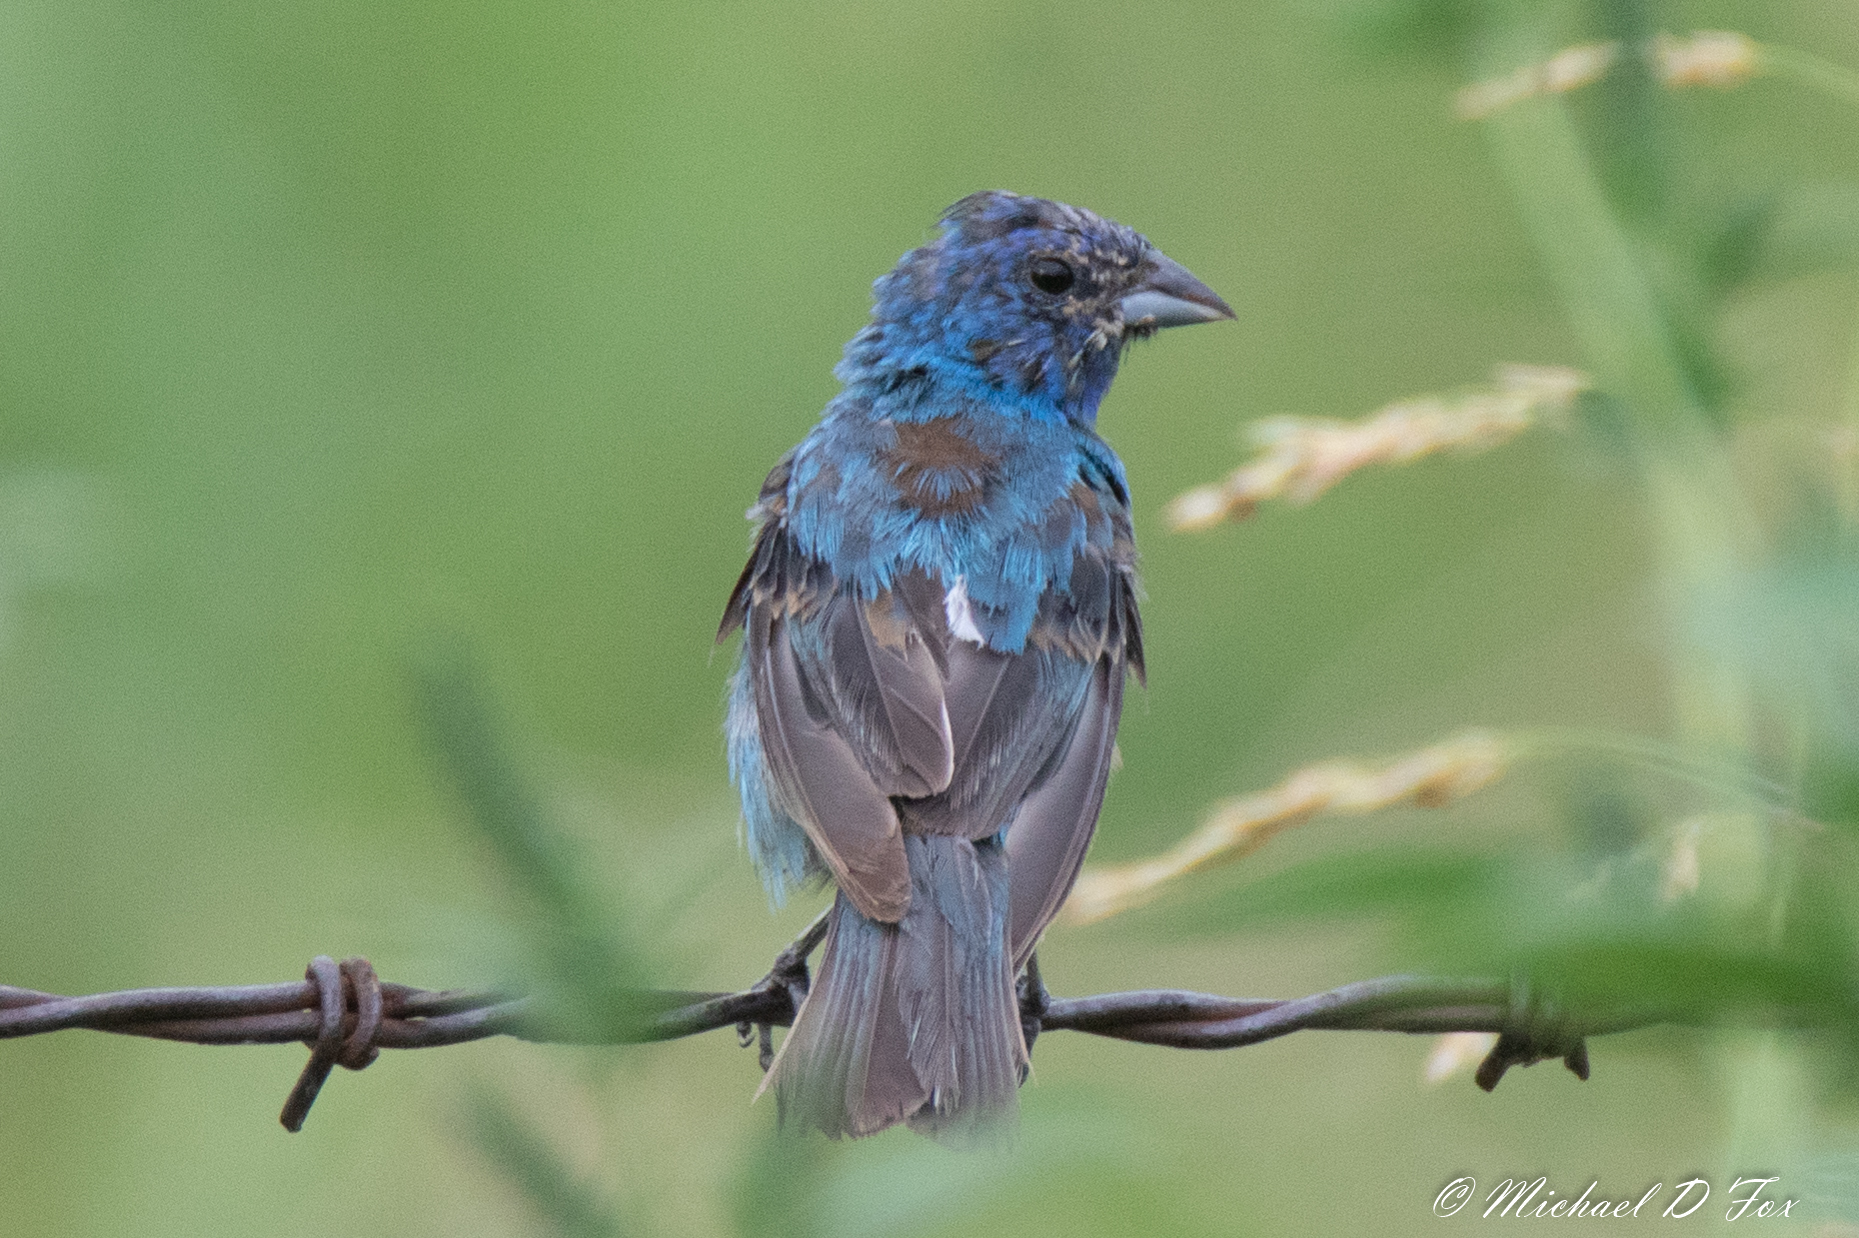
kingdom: Animalia
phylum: Chordata
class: Aves
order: Passeriformes
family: Cardinalidae
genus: Passerina
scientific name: Passerina cyanea
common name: Indigo bunting
